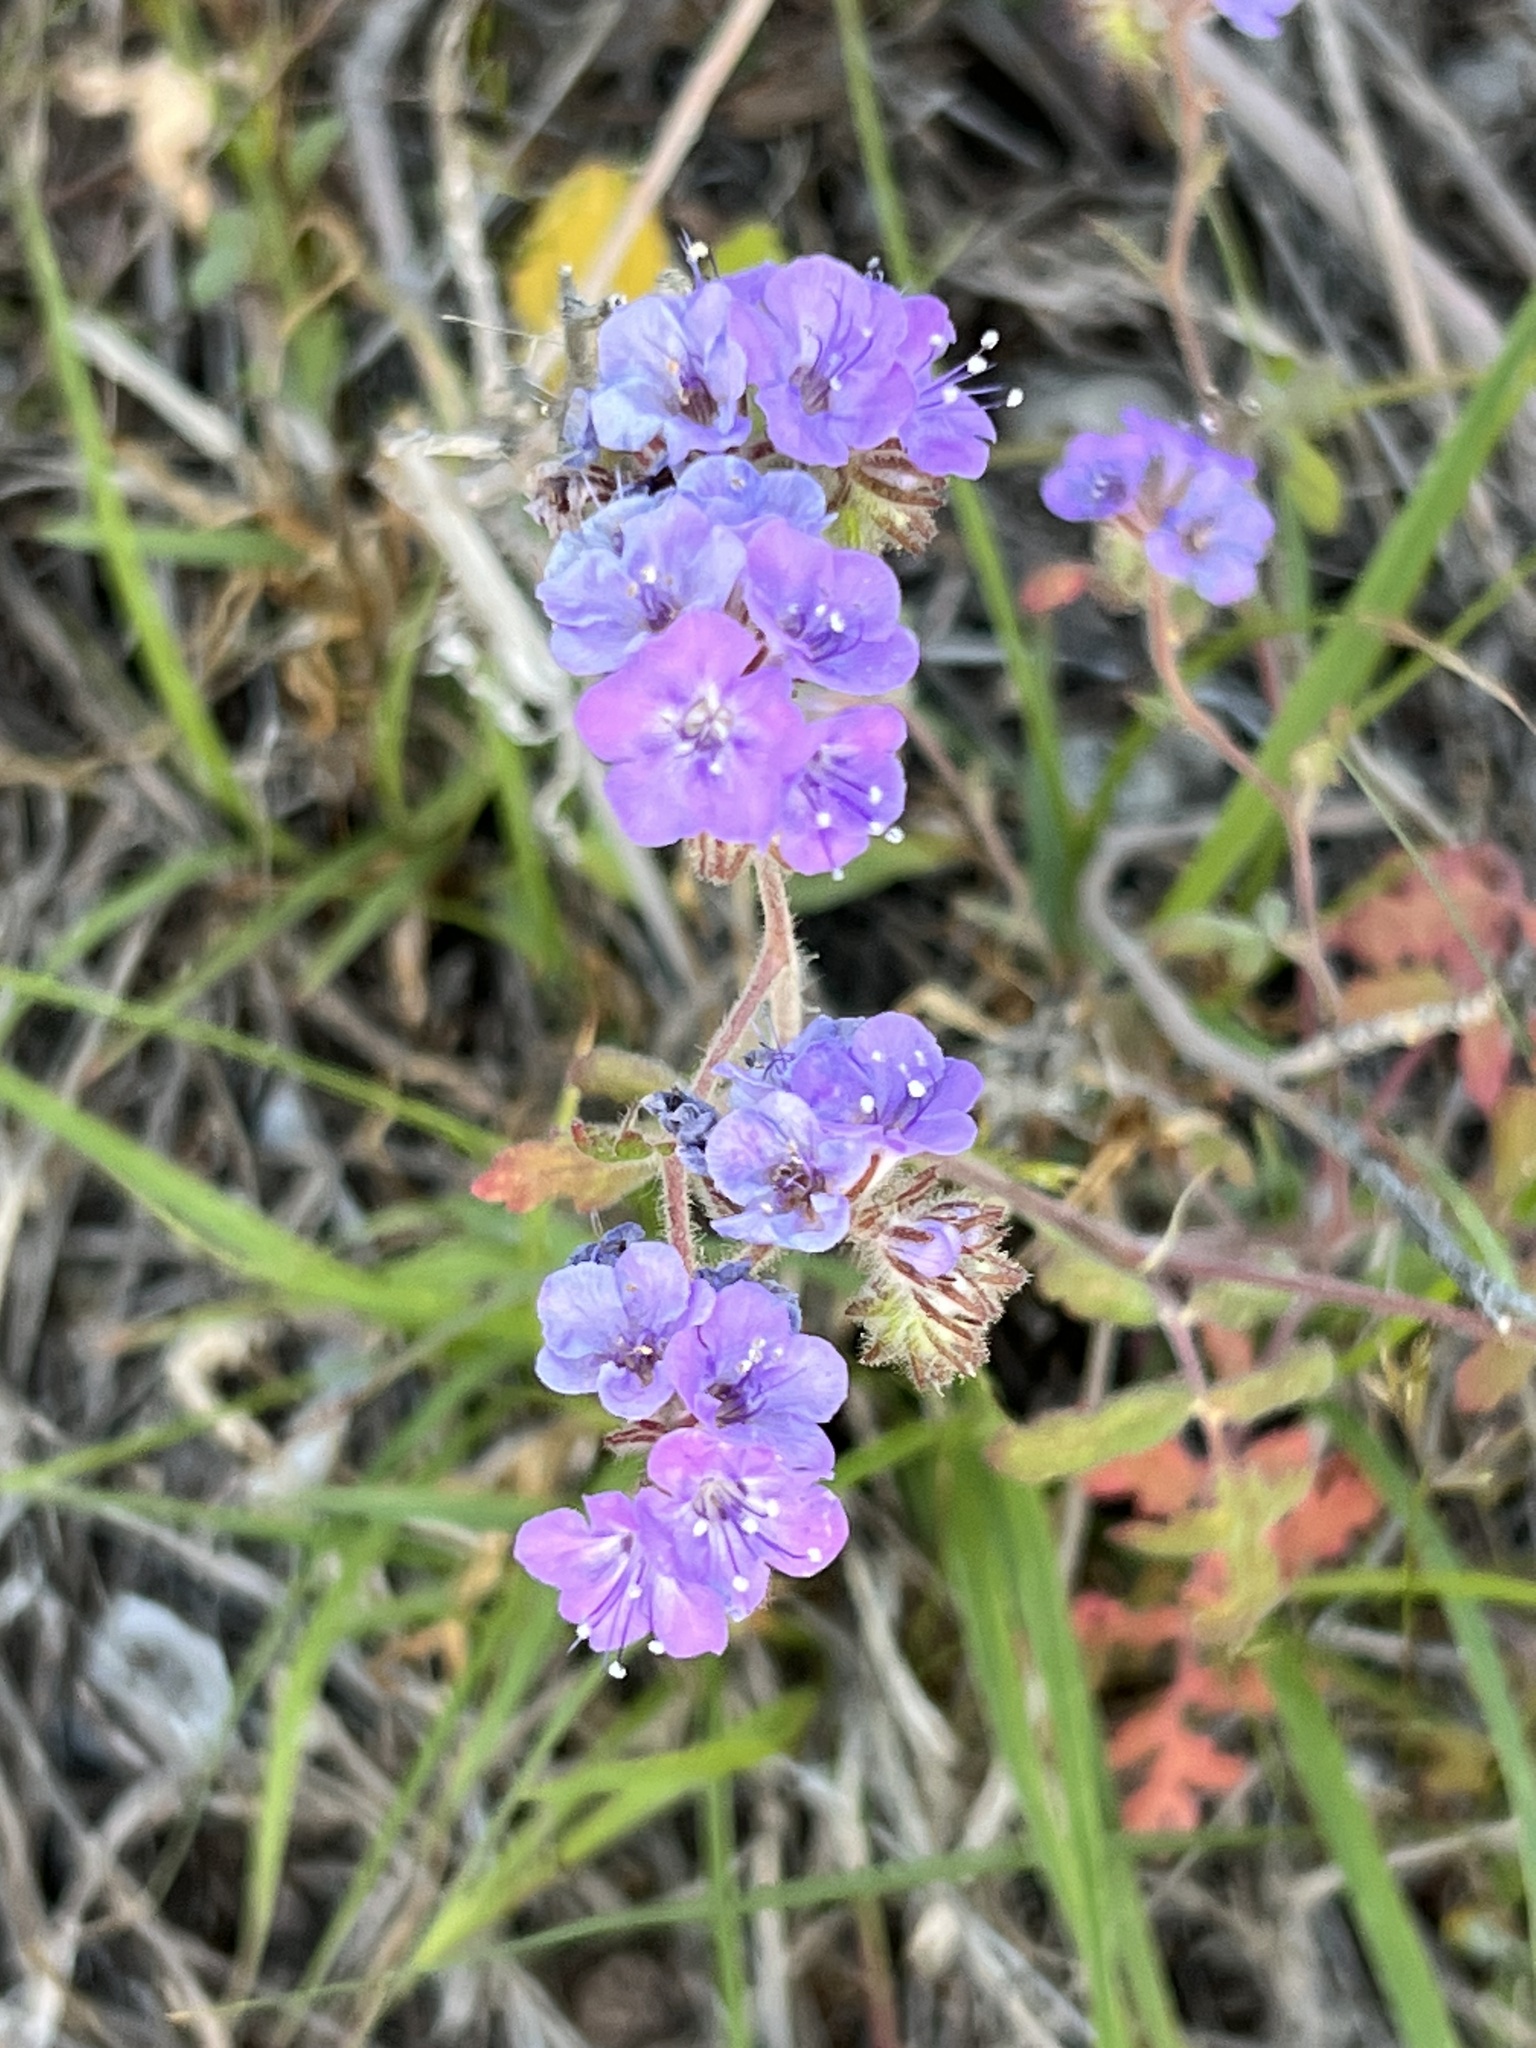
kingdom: Plantae
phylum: Tracheophyta
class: Magnoliopsida
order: Boraginales
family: Hydrophyllaceae
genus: Phacelia
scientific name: Phacelia distans
